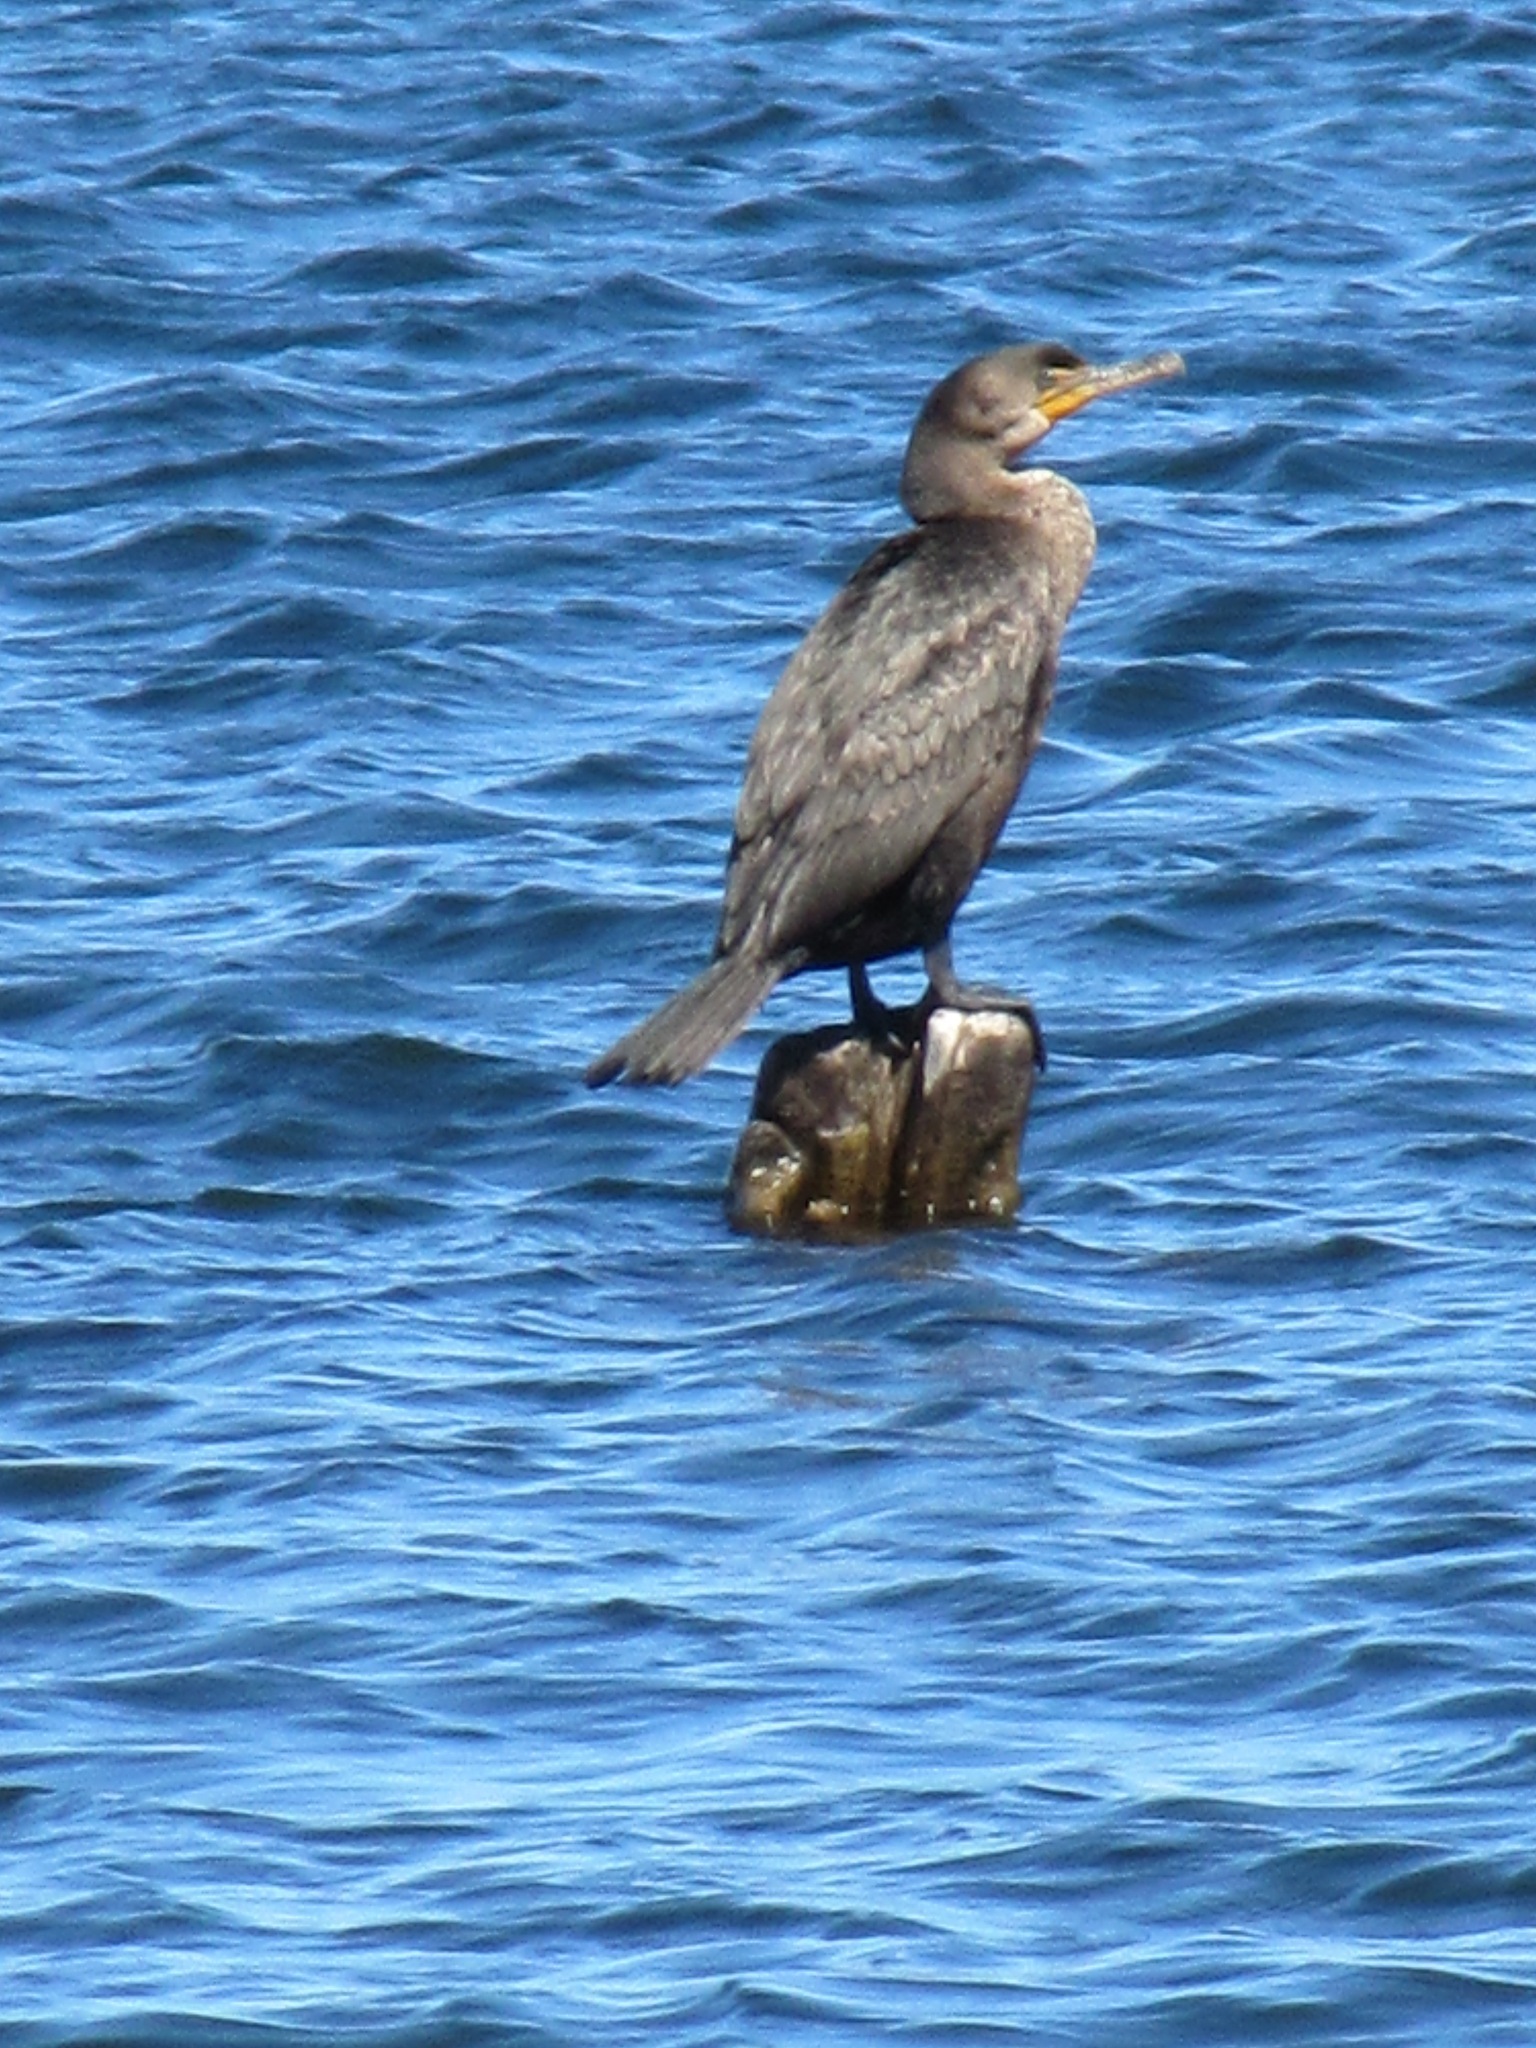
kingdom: Animalia
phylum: Chordata
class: Aves
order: Suliformes
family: Phalacrocoracidae
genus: Phalacrocorax
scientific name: Phalacrocorax auritus
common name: Double-crested cormorant
